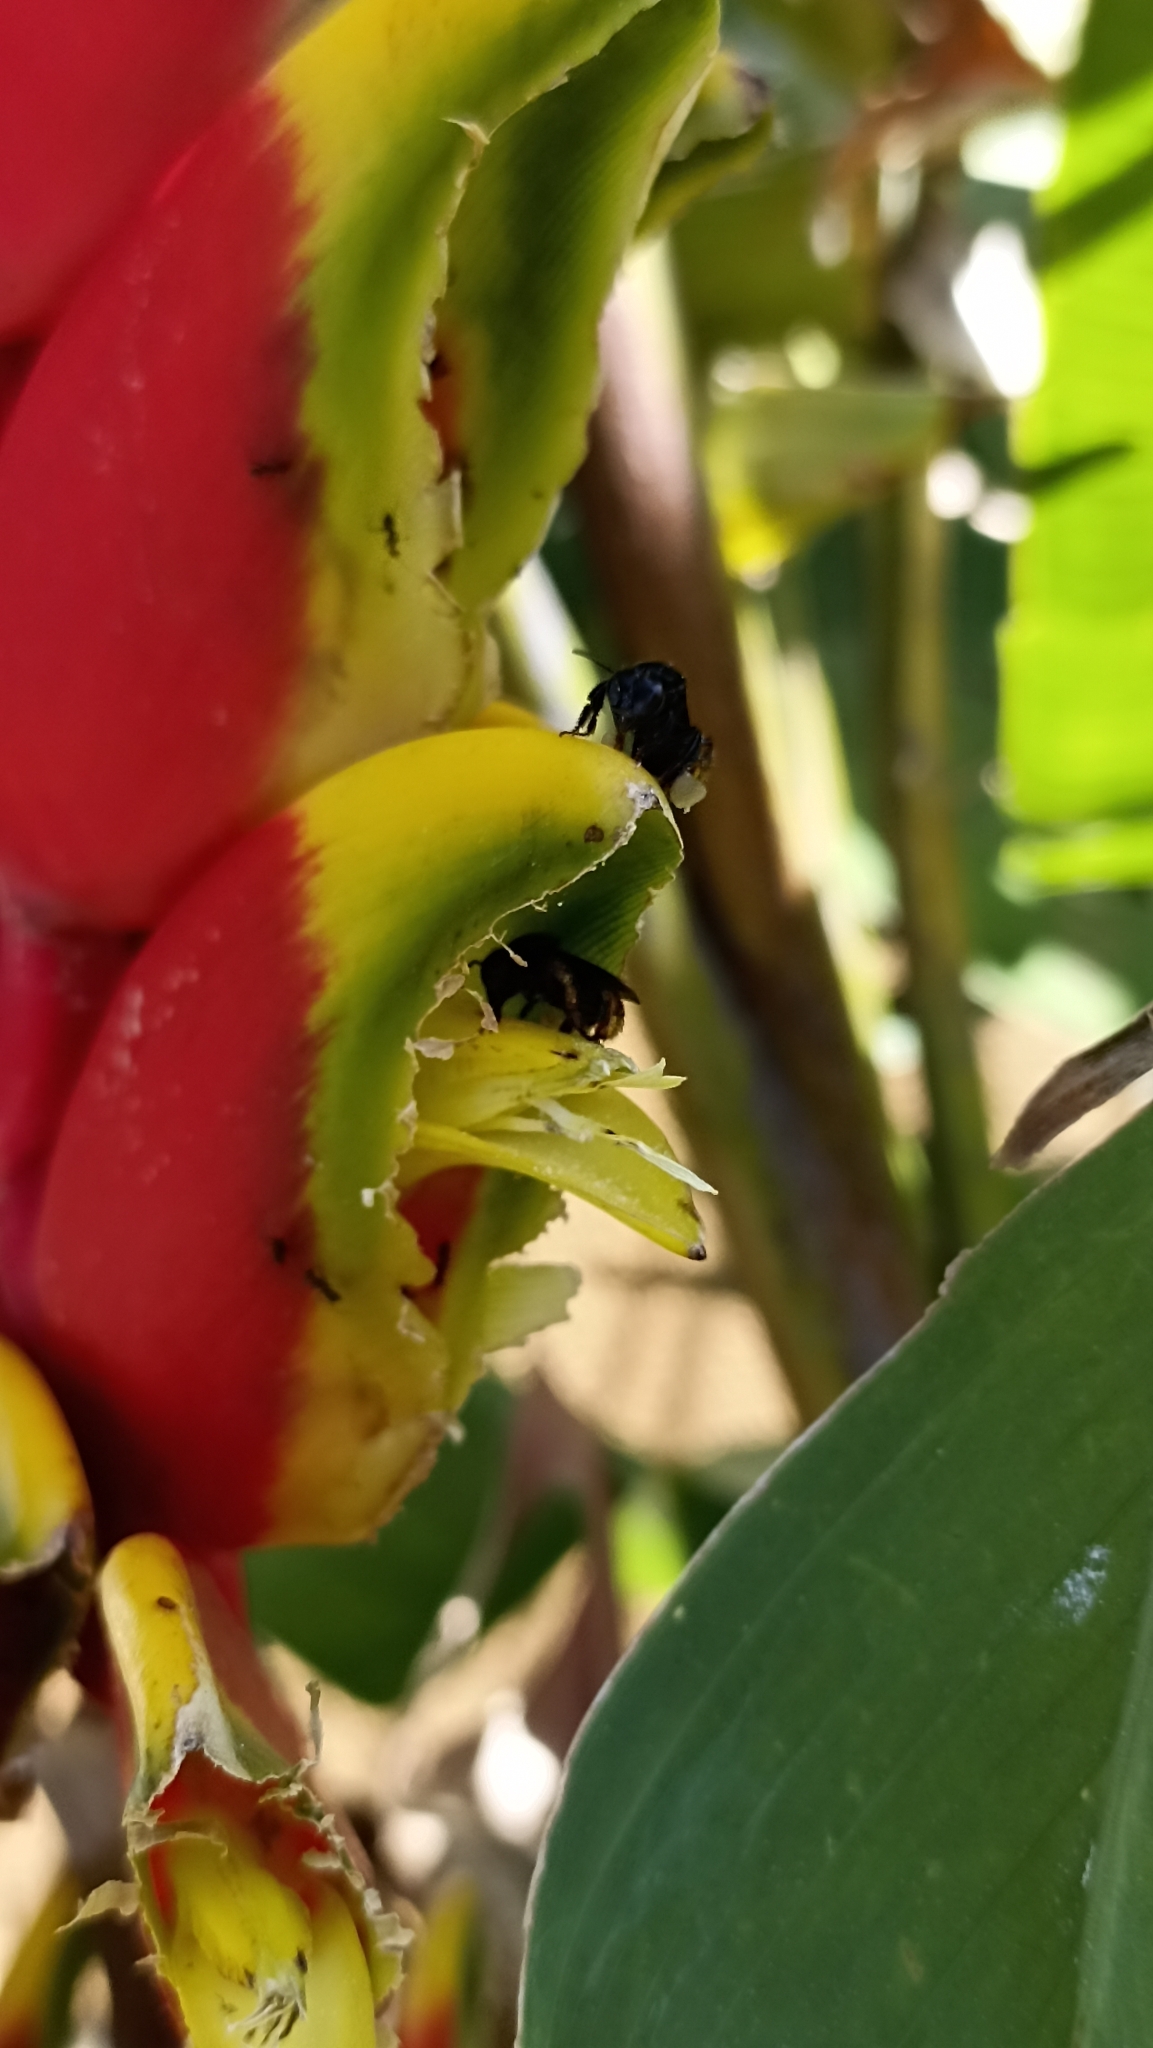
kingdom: Animalia
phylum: Arthropoda
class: Insecta
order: Hymenoptera
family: Apidae
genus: Trigona
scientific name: Trigona spinipes
